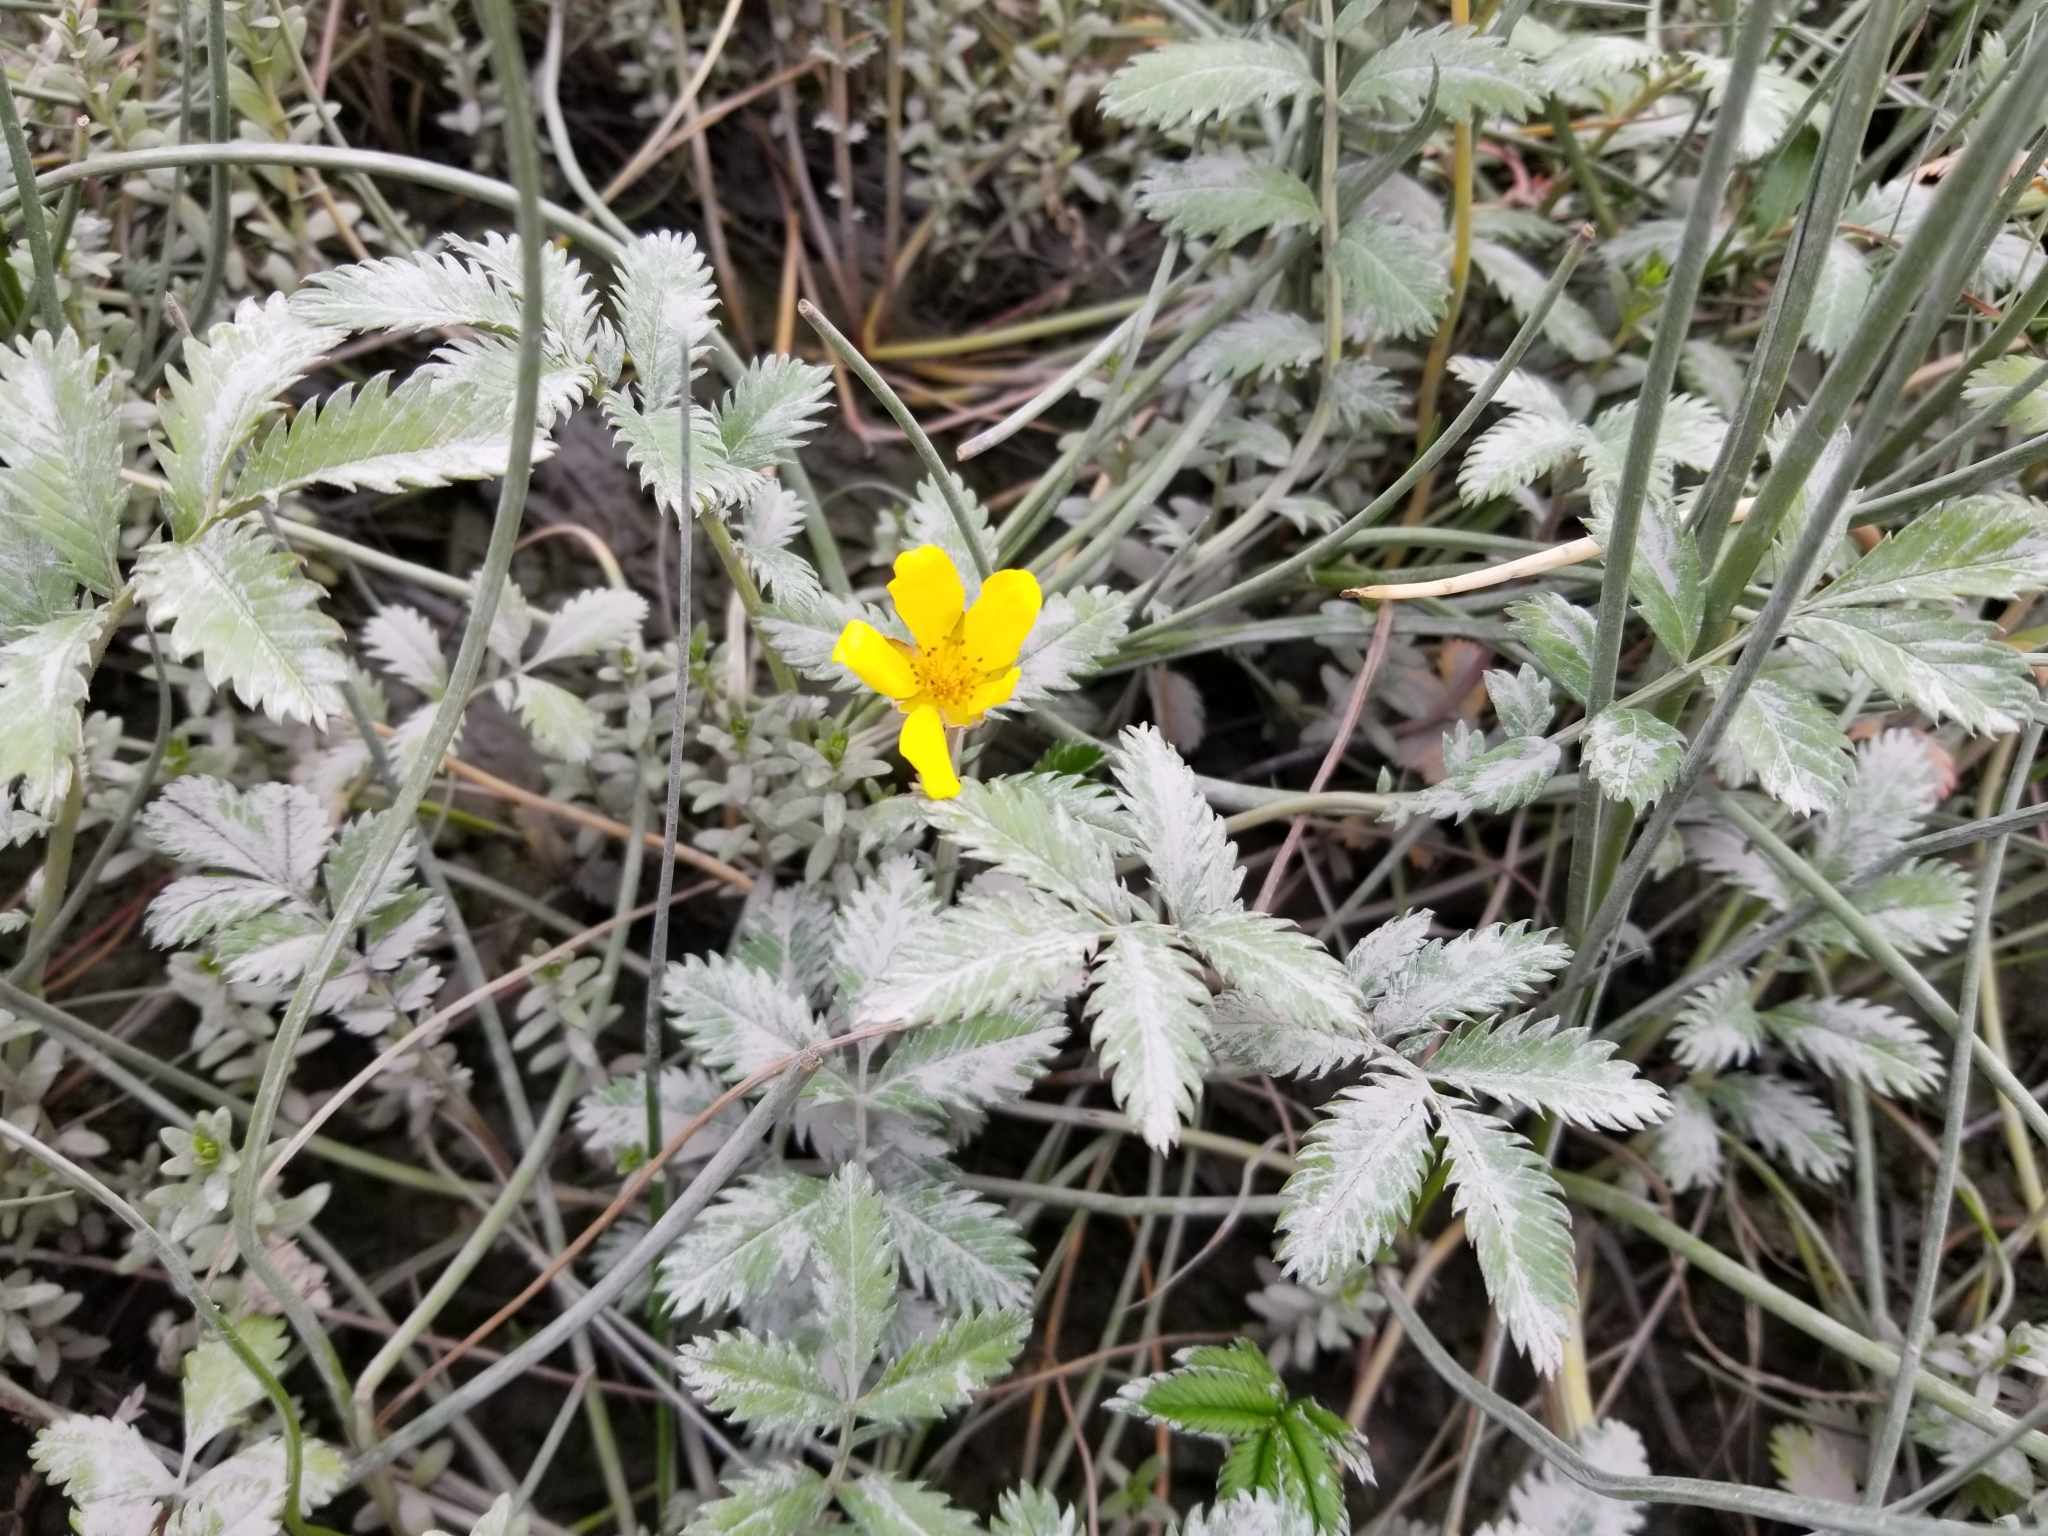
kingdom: Plantae
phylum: Tracheophyta
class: Magnoliopsida
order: Rosales
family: Rosaceae
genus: Argentina
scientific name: Argentina anserina
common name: Common silverweed
